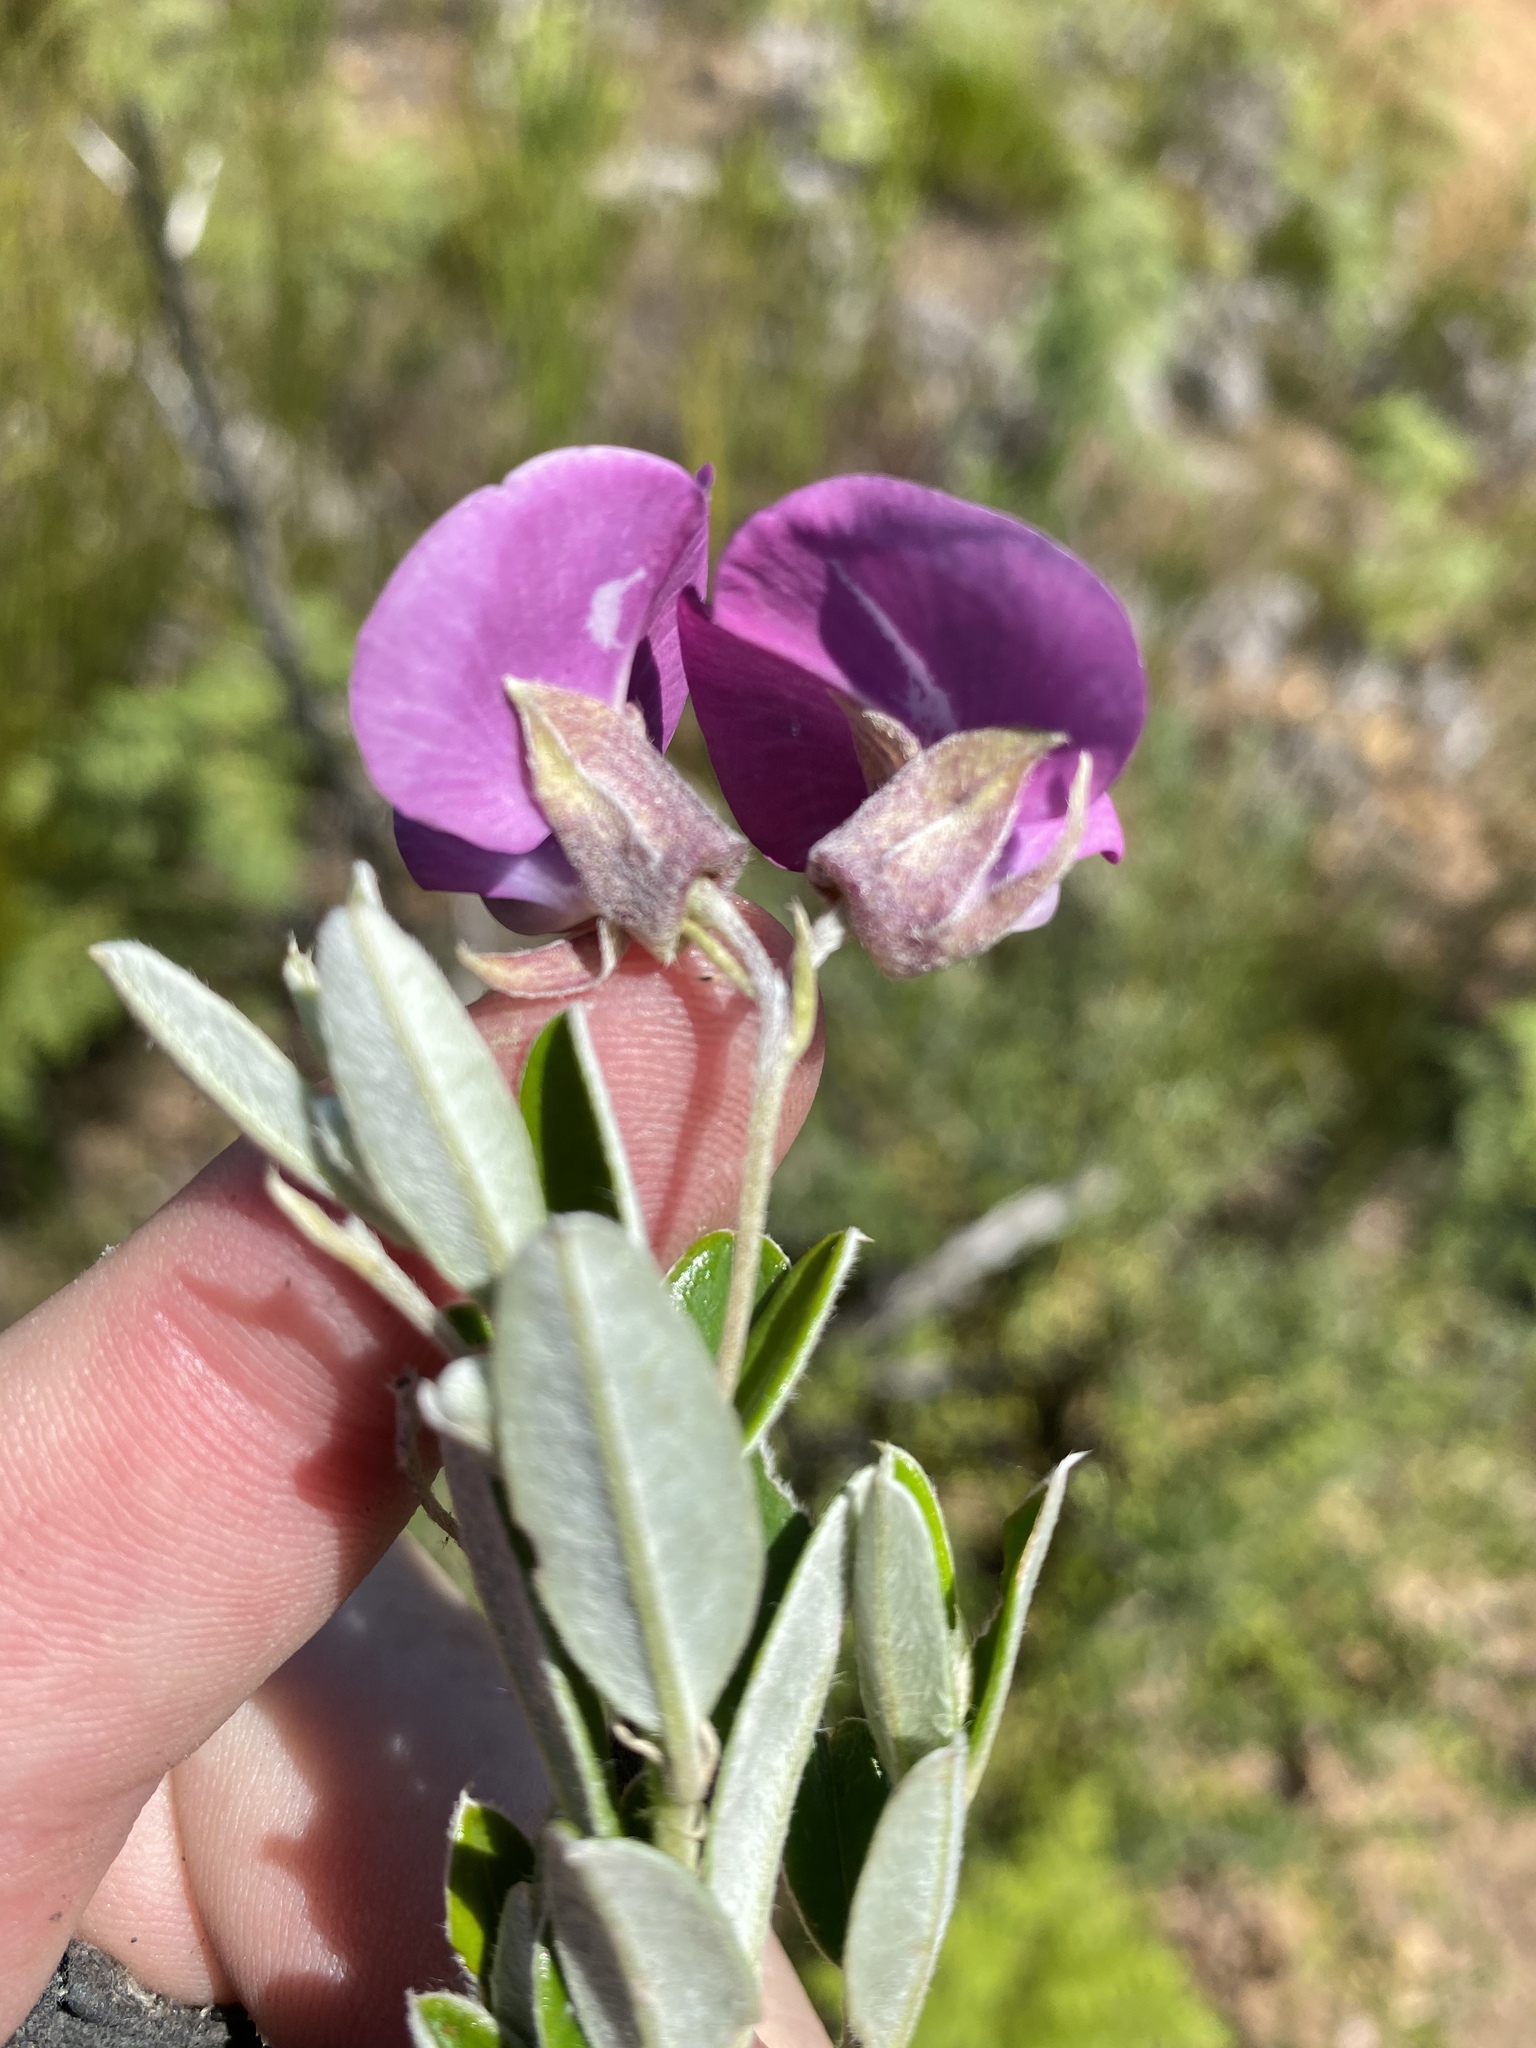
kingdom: Plantae
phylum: Tracheophyta
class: Magnoliopsida
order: Fabales
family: Fabaceae
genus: Podalyria
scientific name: Podalyria buxifolia
